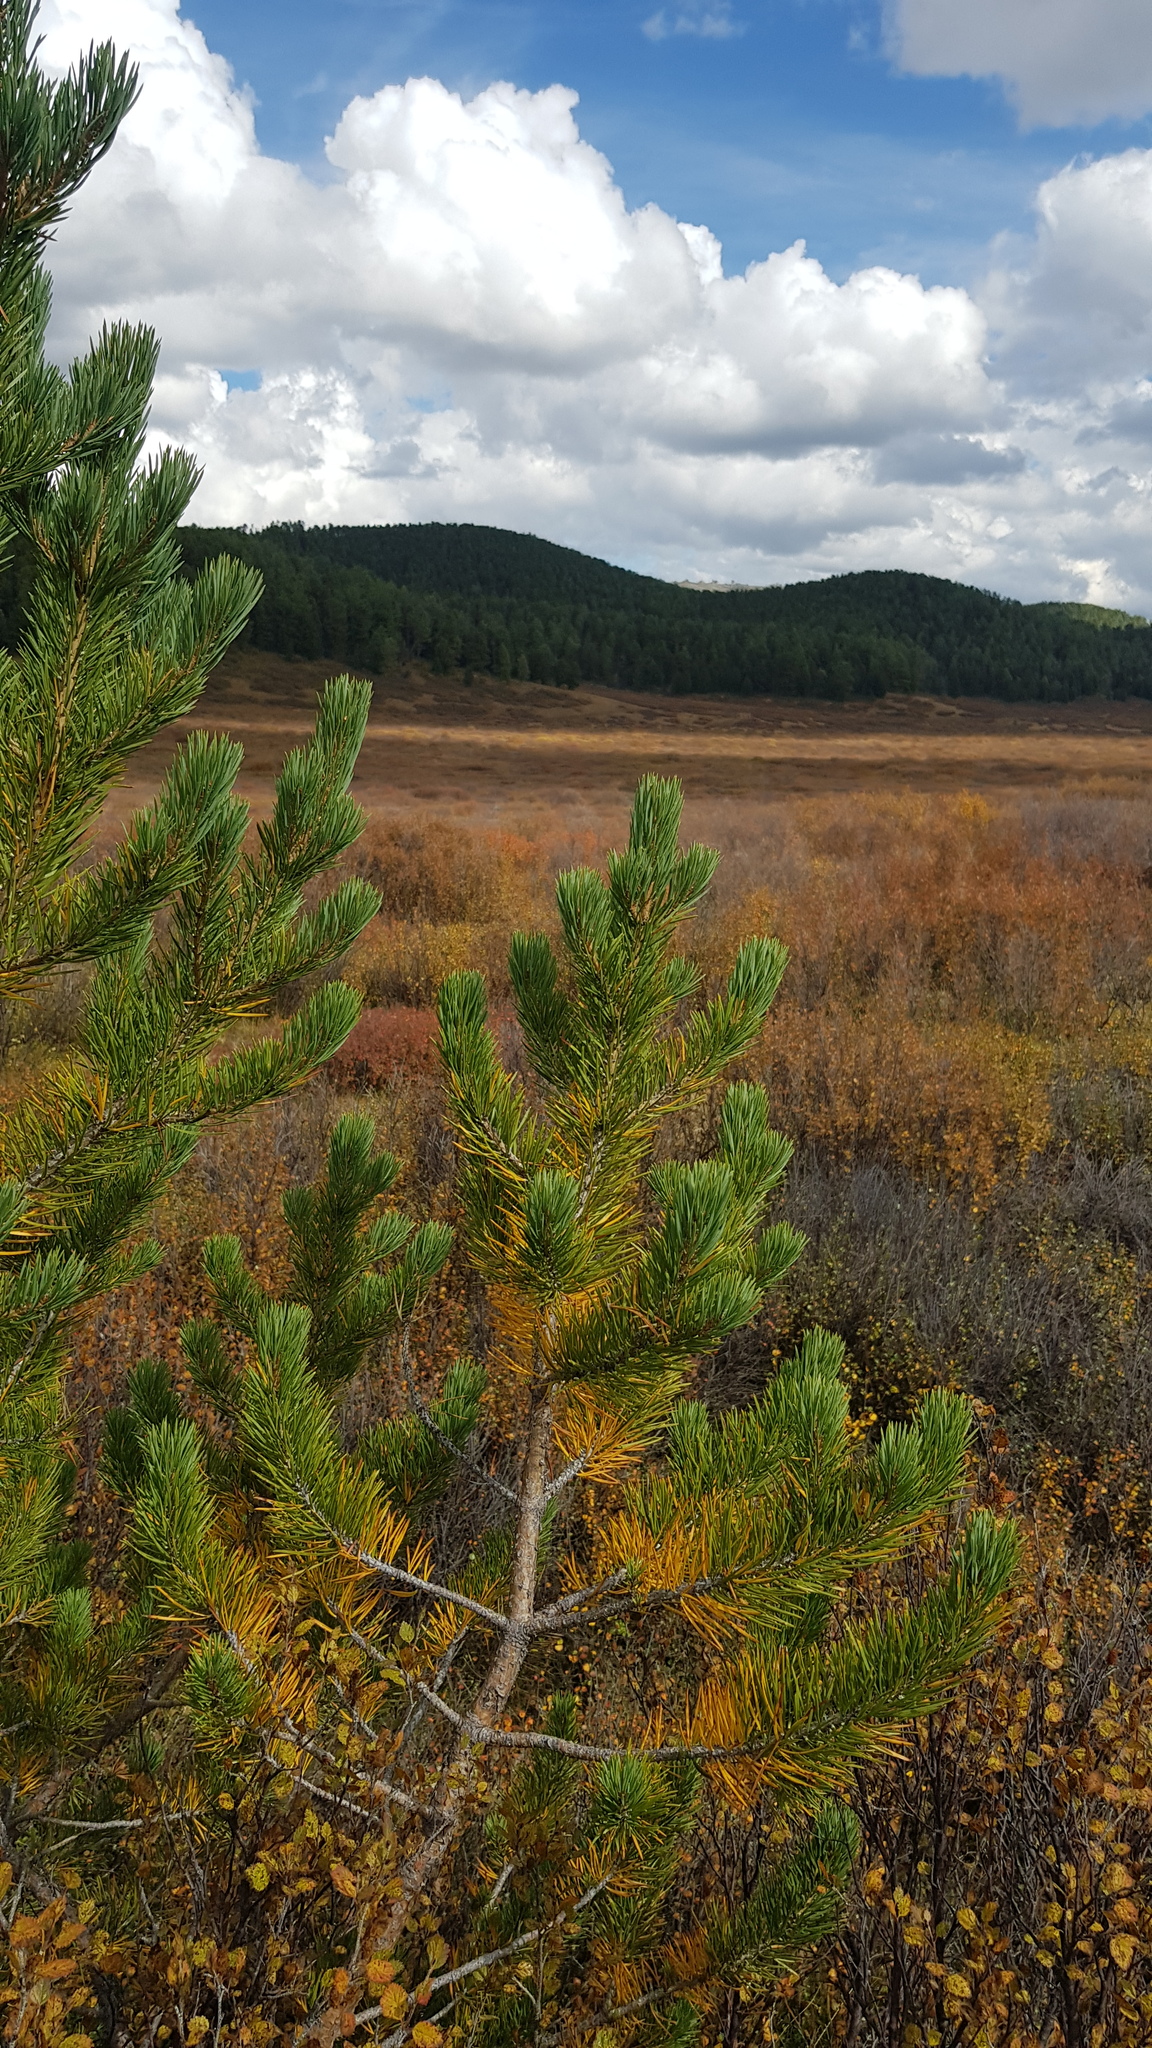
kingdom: Plantae
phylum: Tracheophyta
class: Pinopsida
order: Pinales
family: Pinaceae
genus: Pinus
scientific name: Pinus sylvestris
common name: Scots pine
